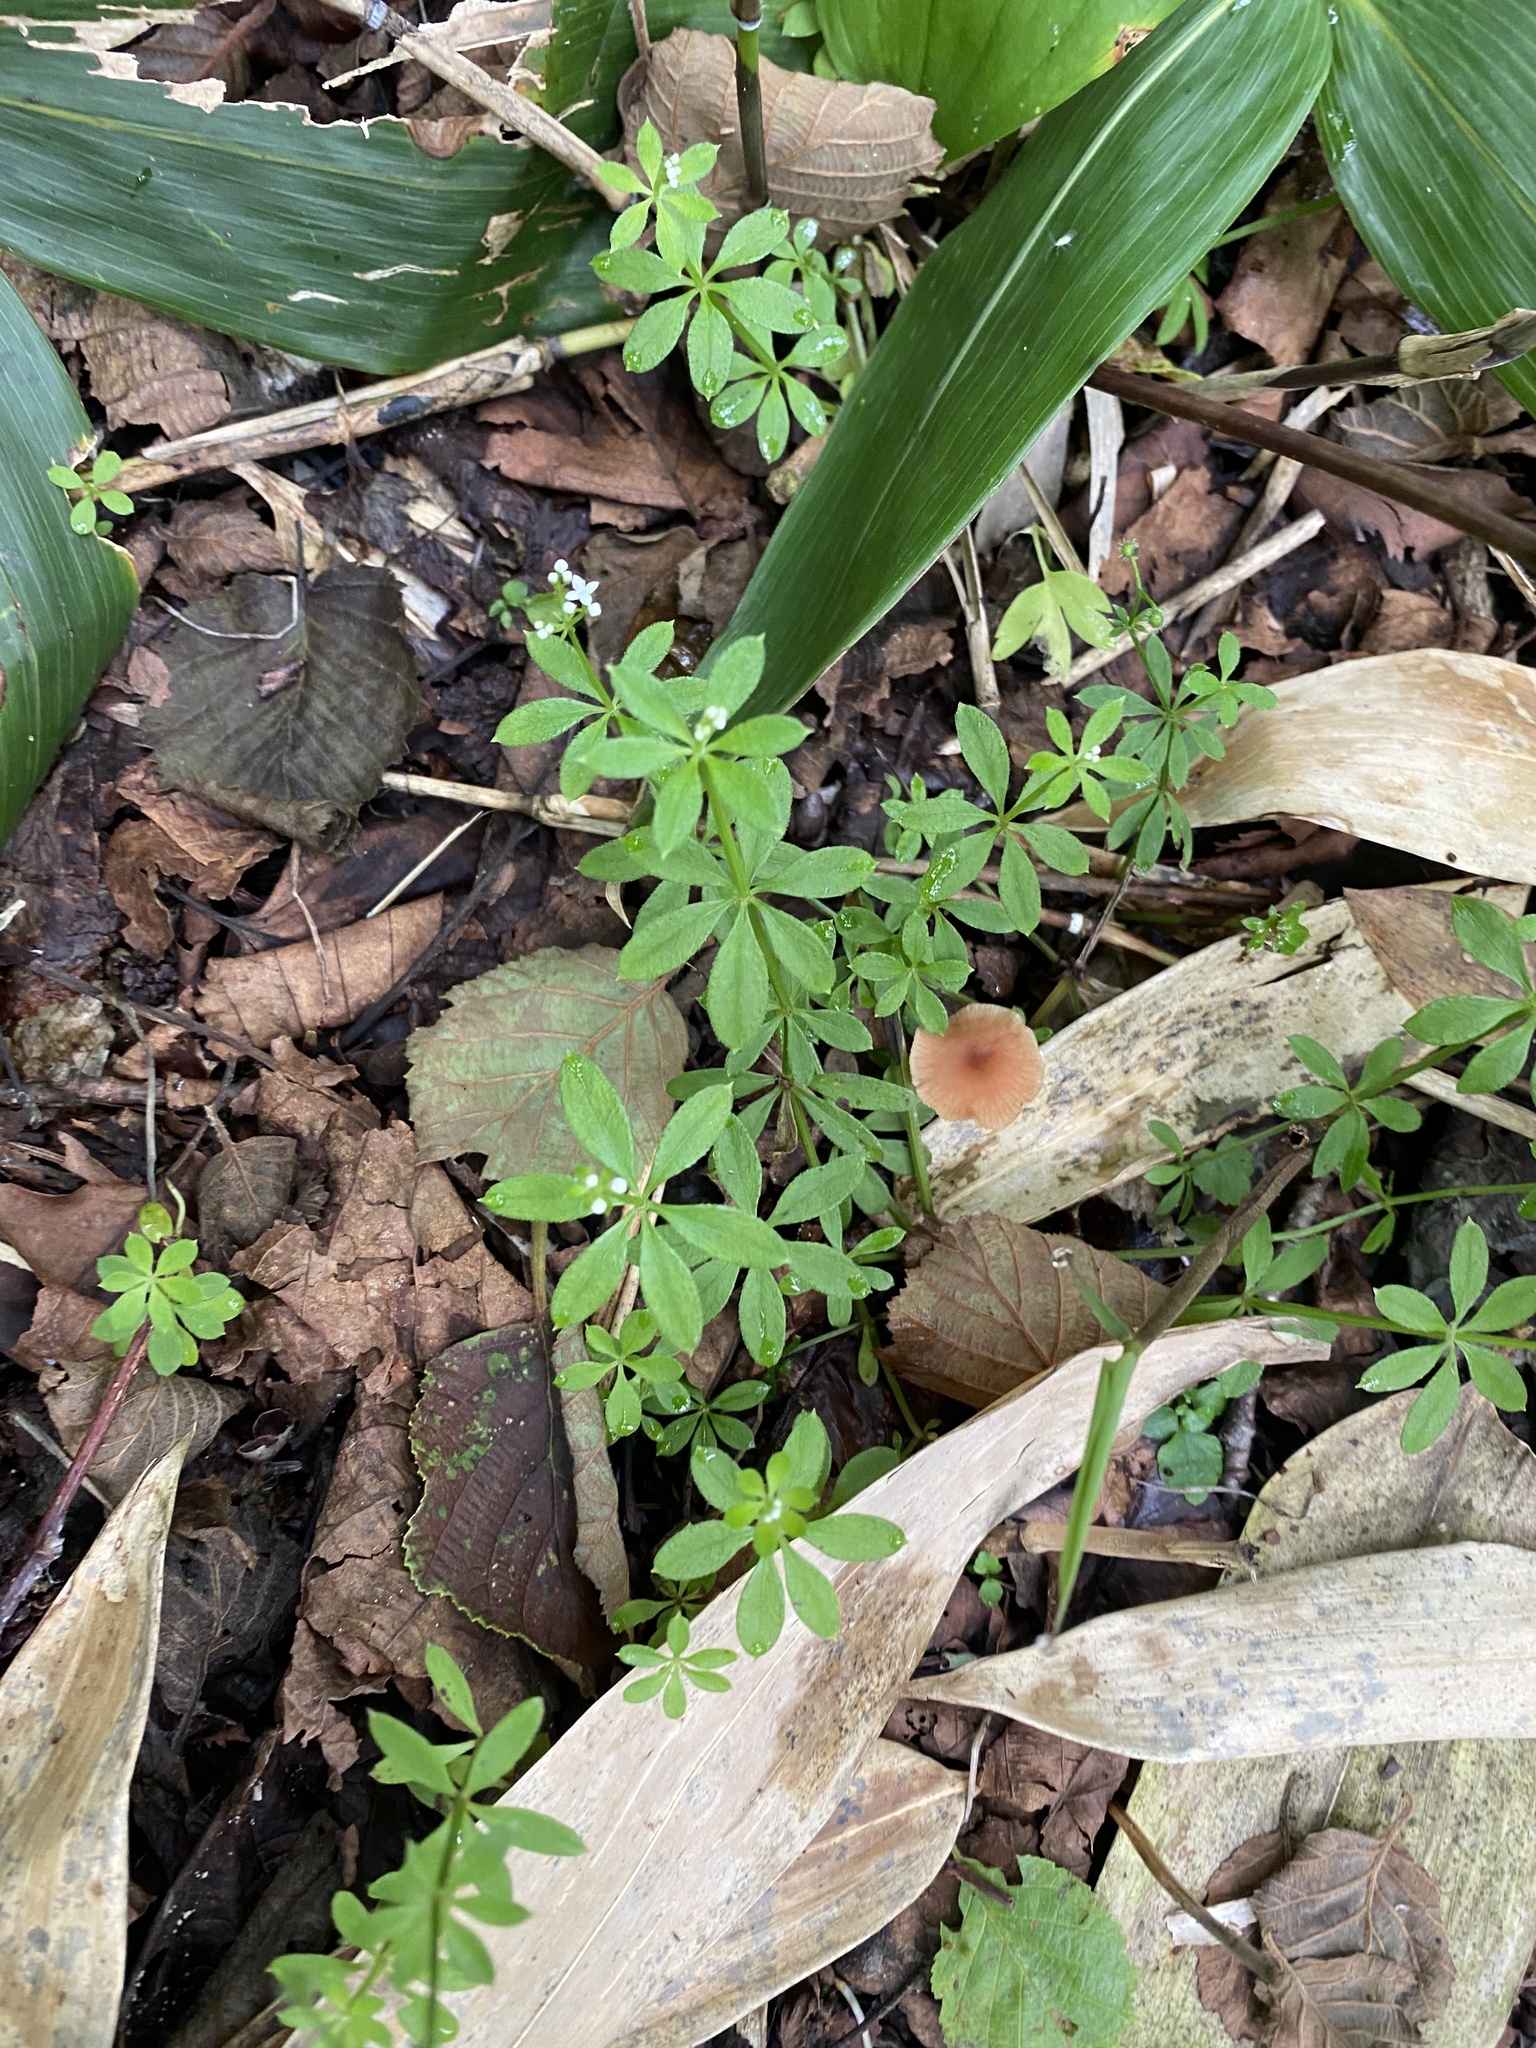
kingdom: Plantae
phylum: Tracheophyta
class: Magnoliopsida
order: Gentianales
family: Rubiaceae
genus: Galium
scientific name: Galium odoratum
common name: Sweet woodruff
